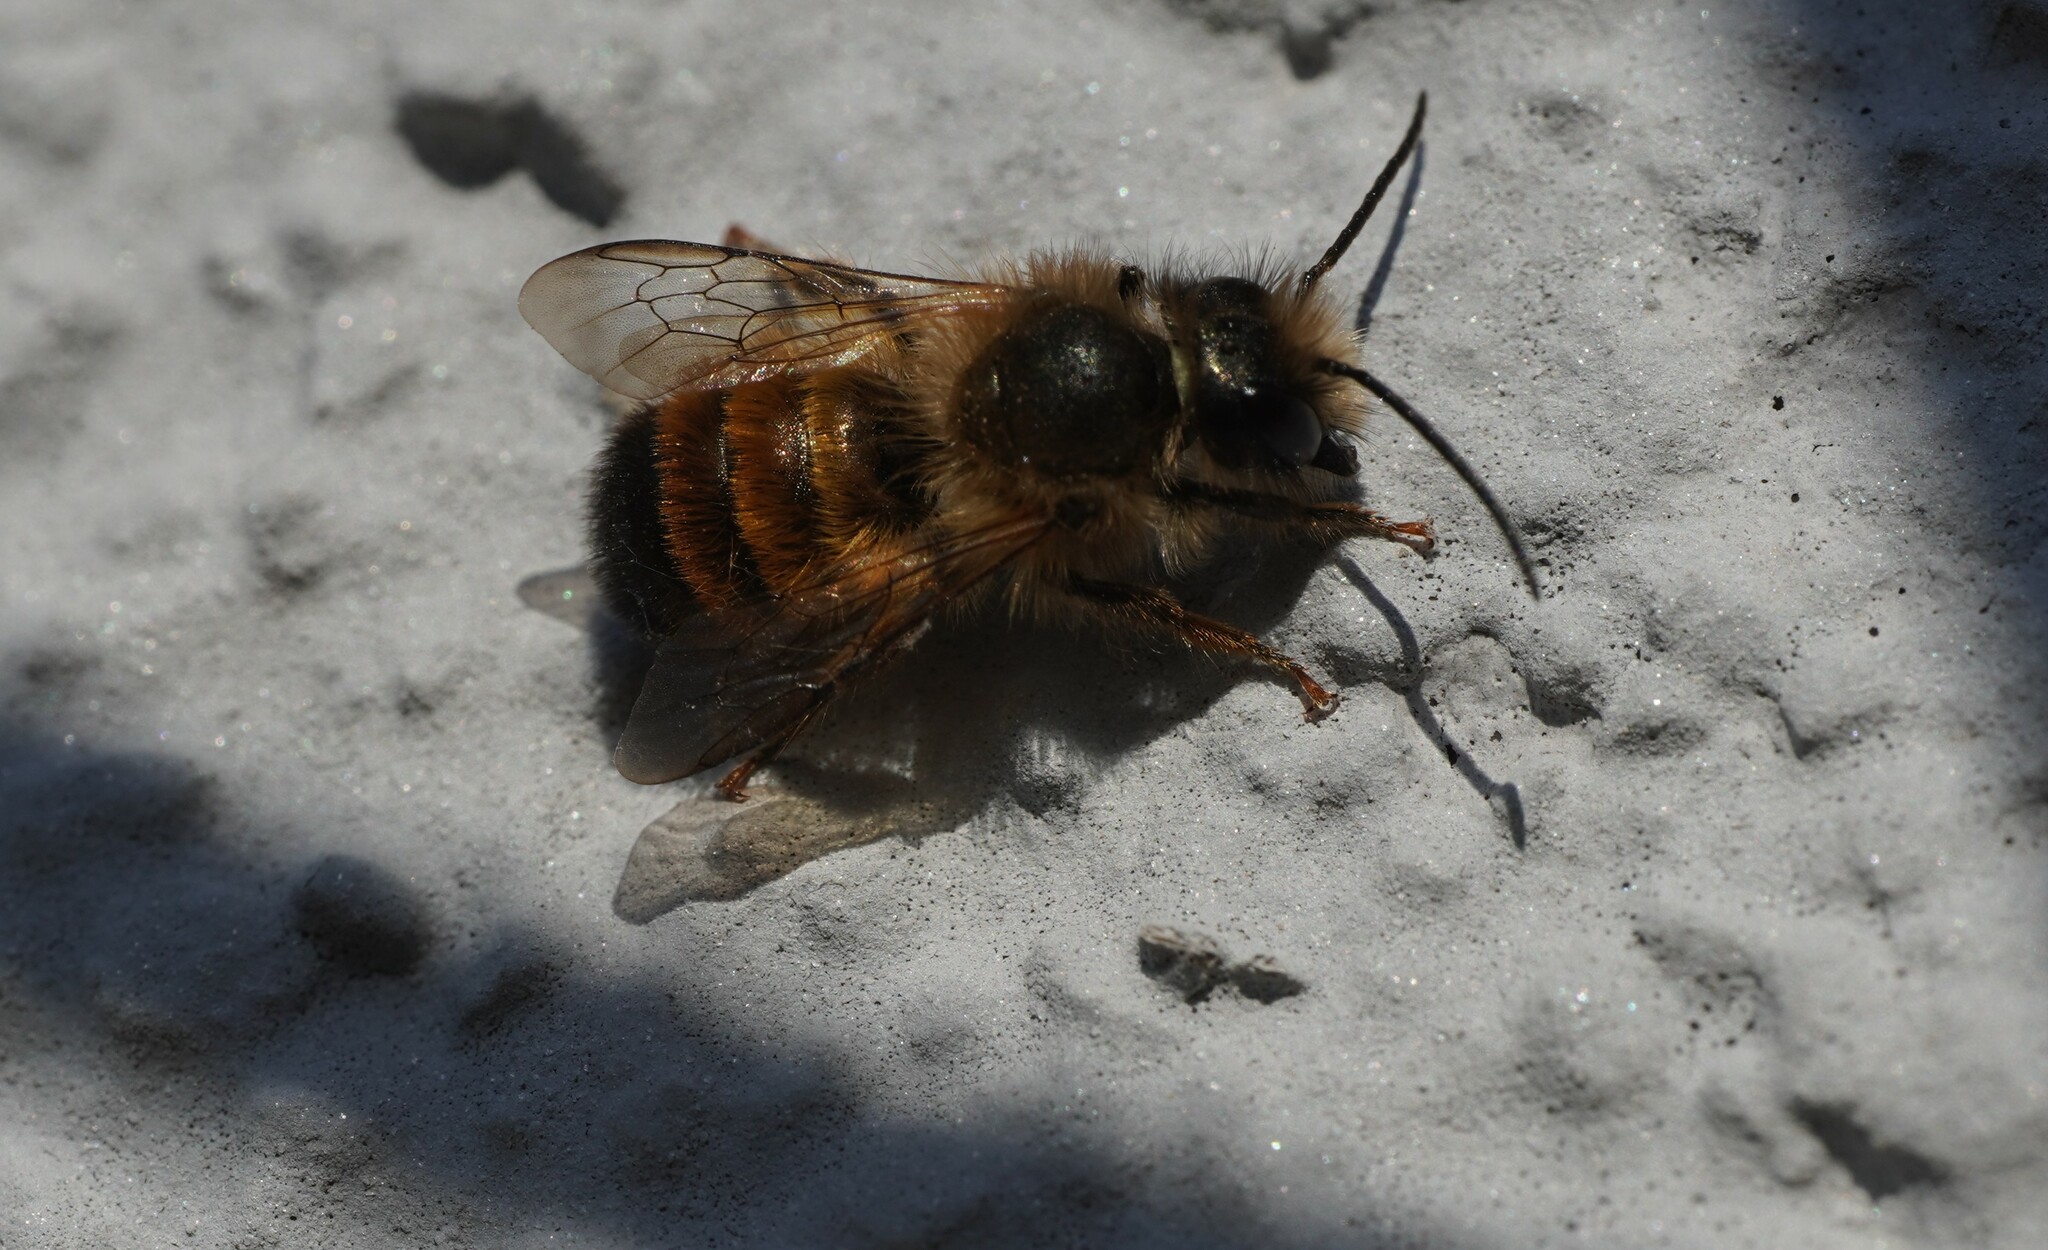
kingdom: Animalia
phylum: Arthropoda
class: Insecta
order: Hymenoptera
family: Megachilidae
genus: Osmia
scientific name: Osmia bicornis
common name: Red mason bee
